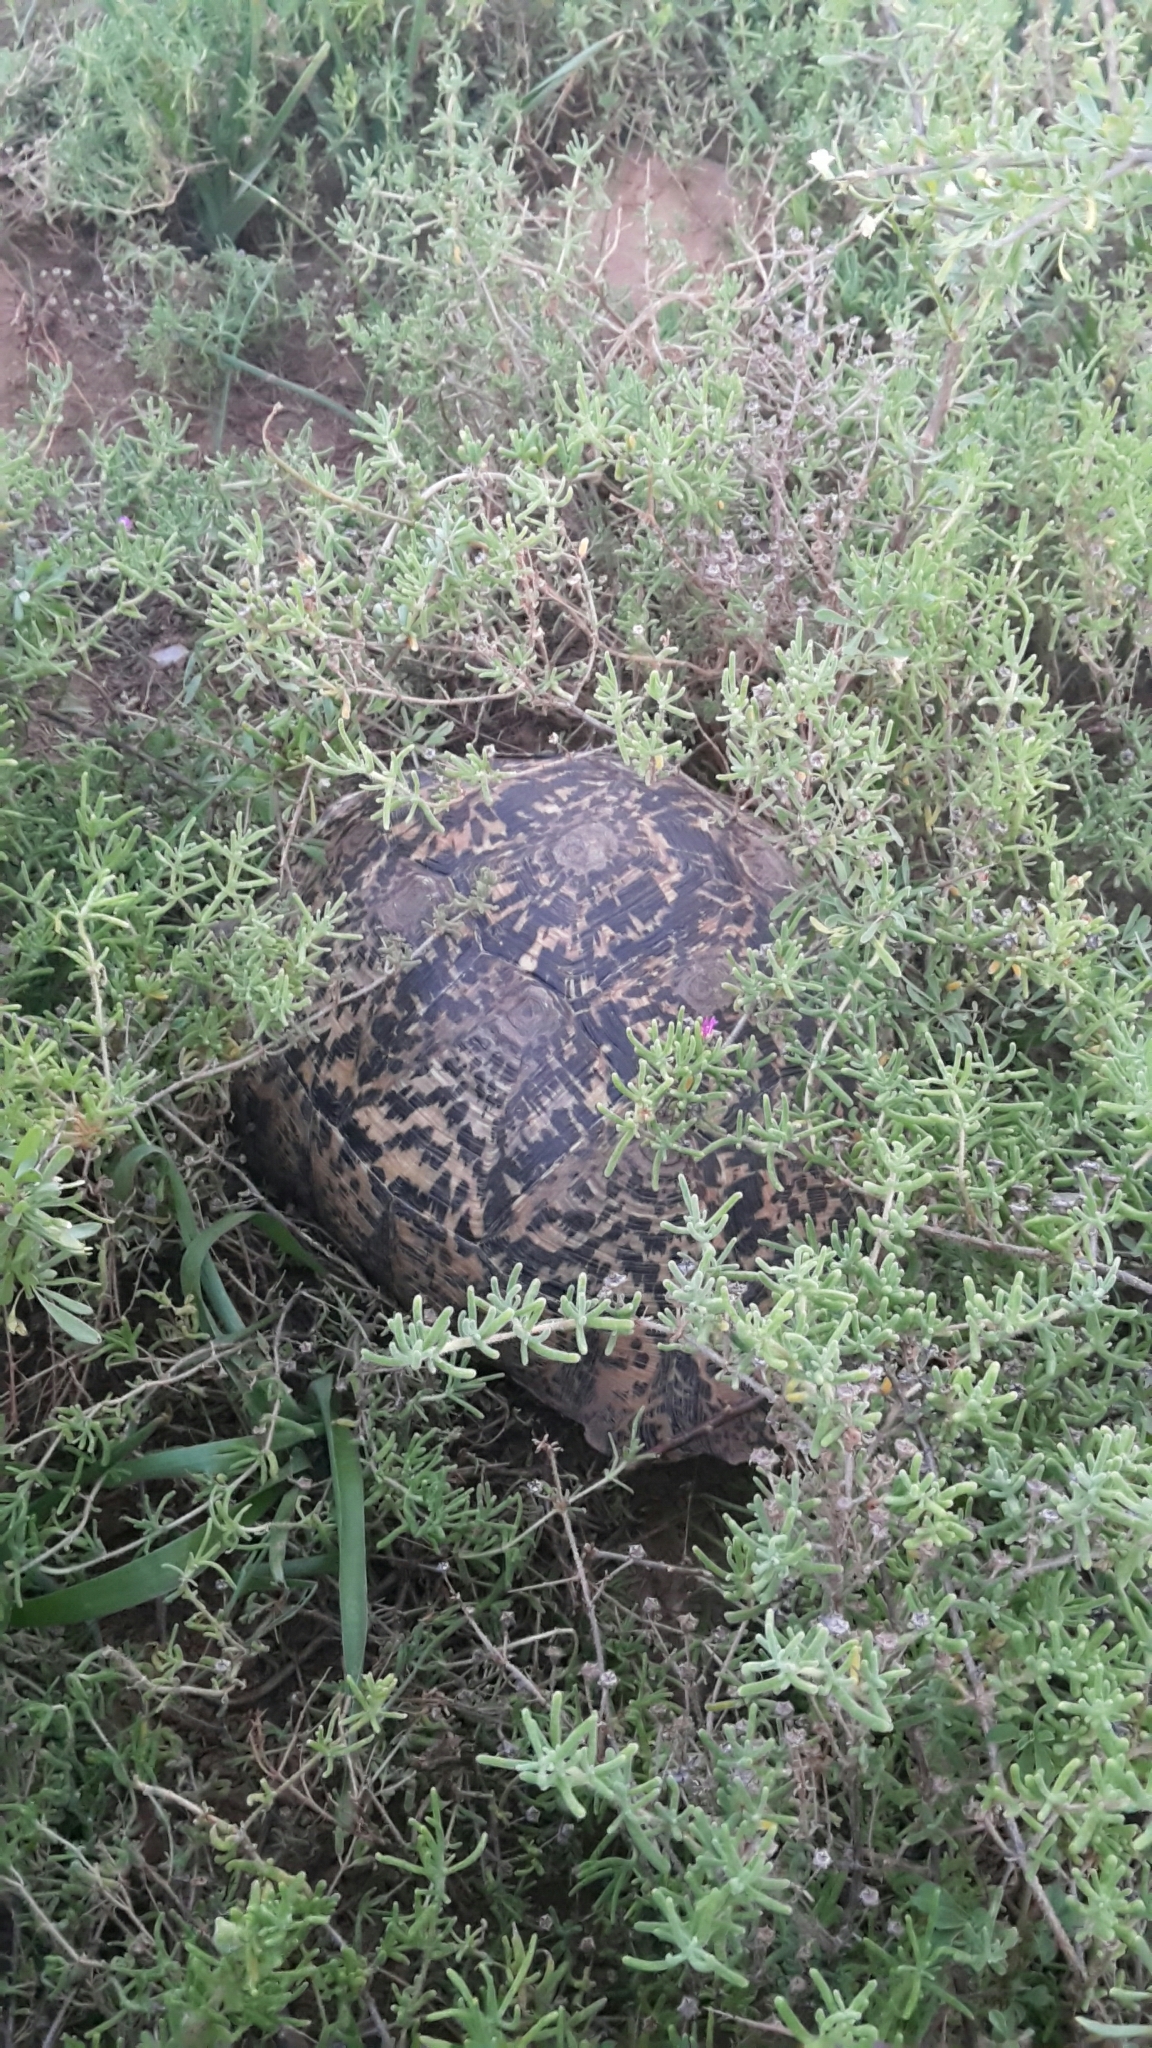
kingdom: Animalia
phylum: Chordata
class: Testudines
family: Testudinidae
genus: Stigmochelys
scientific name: Stigmochelys pardalis
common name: Leopard tortoise
